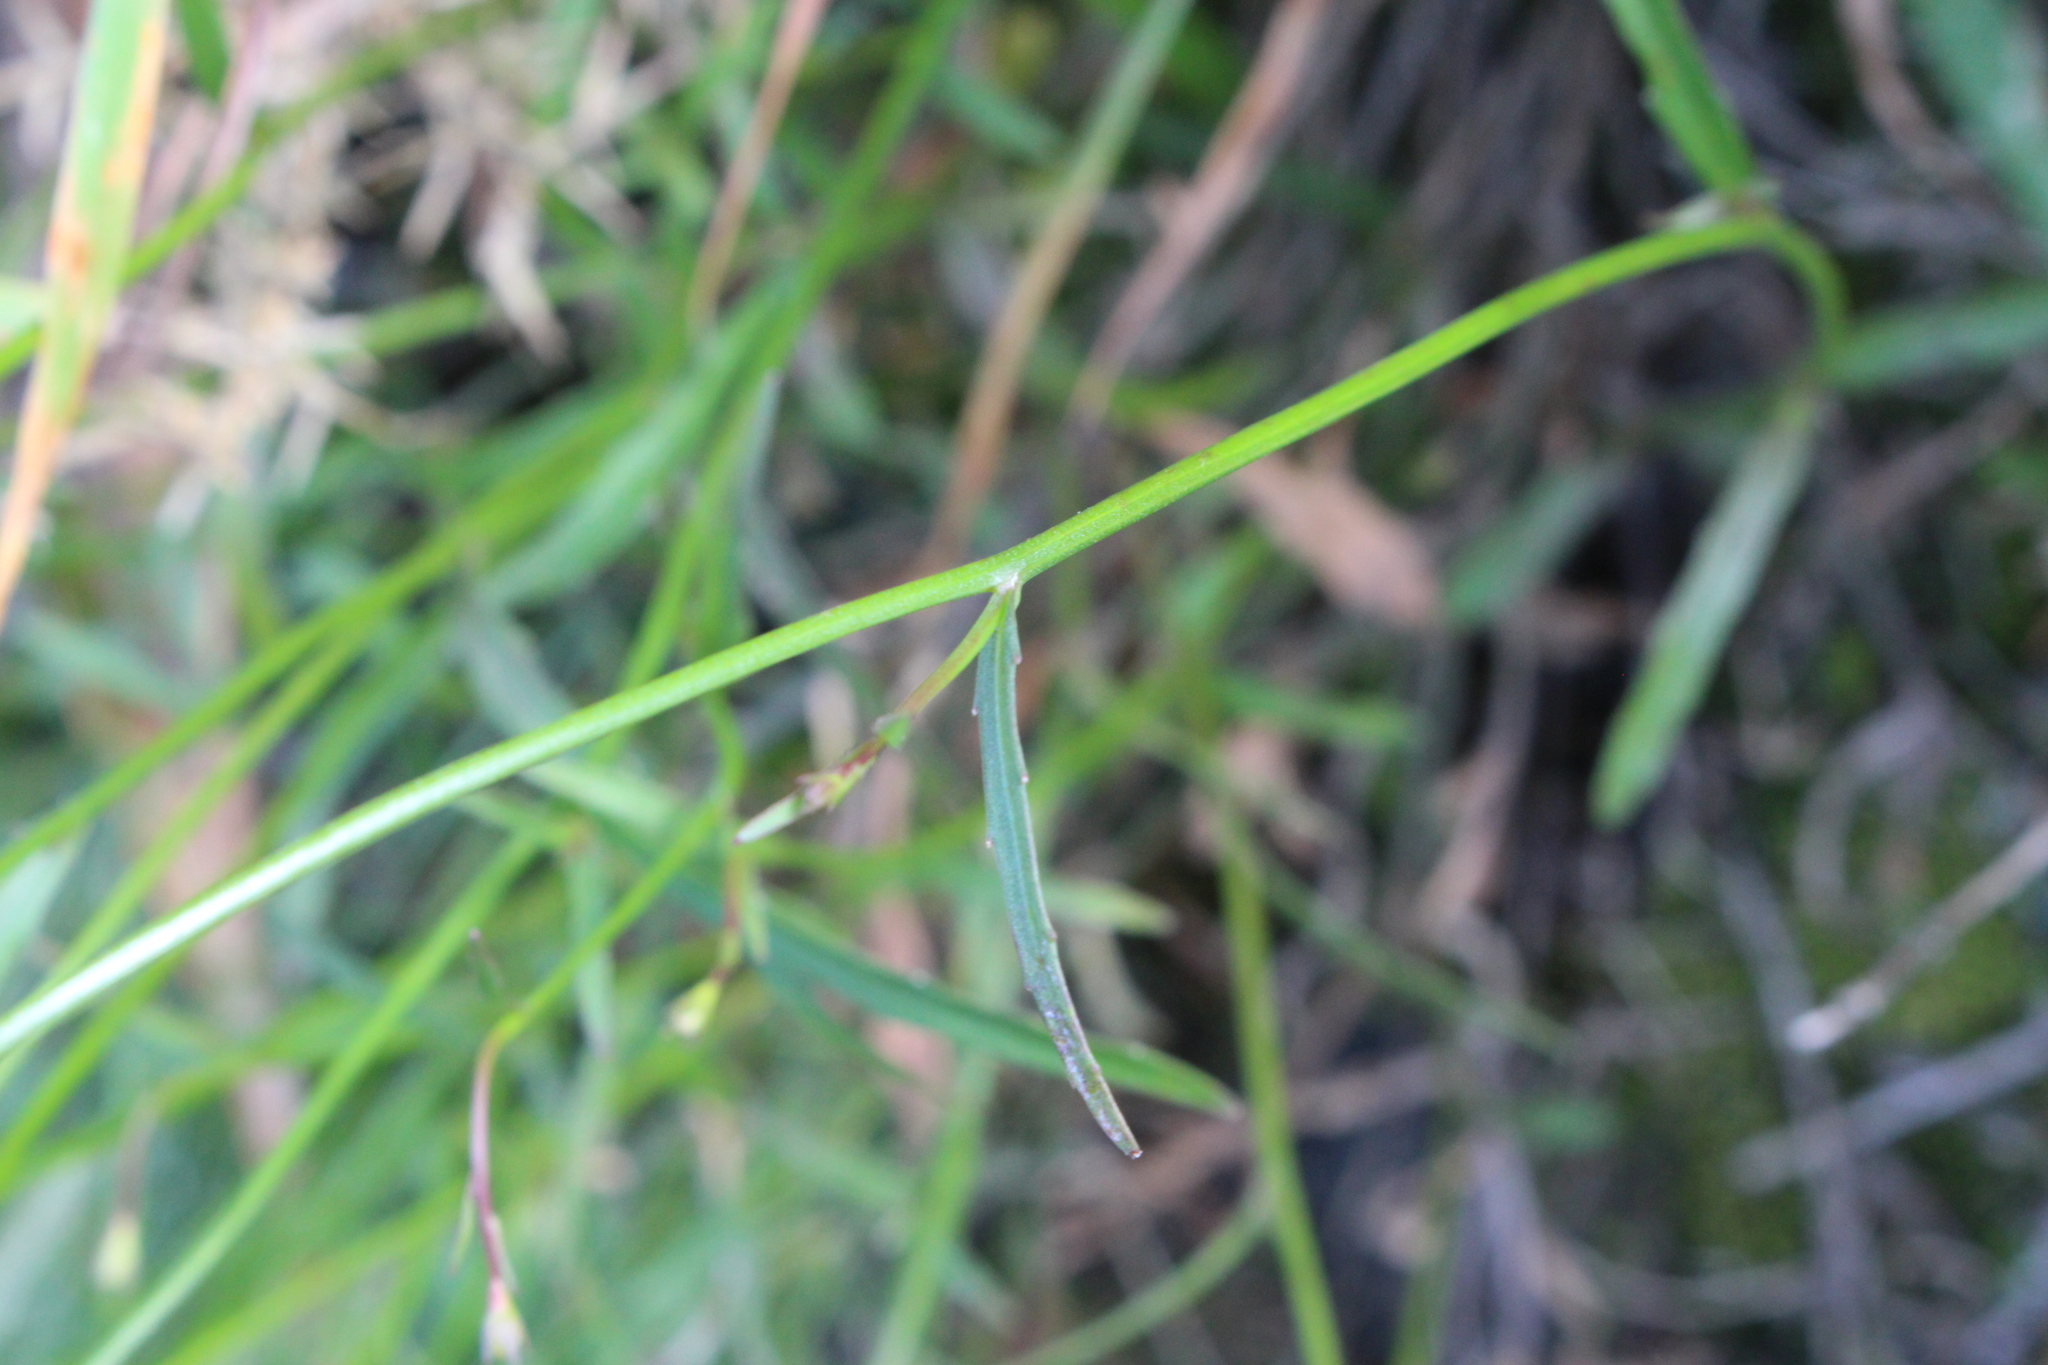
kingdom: Plantae
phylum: Tracheophyta
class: Magnoliopsida
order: Asterales
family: Campanulaceae
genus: Wahlenbergia
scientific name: Wahlenbergia gracilis
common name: Harebell
